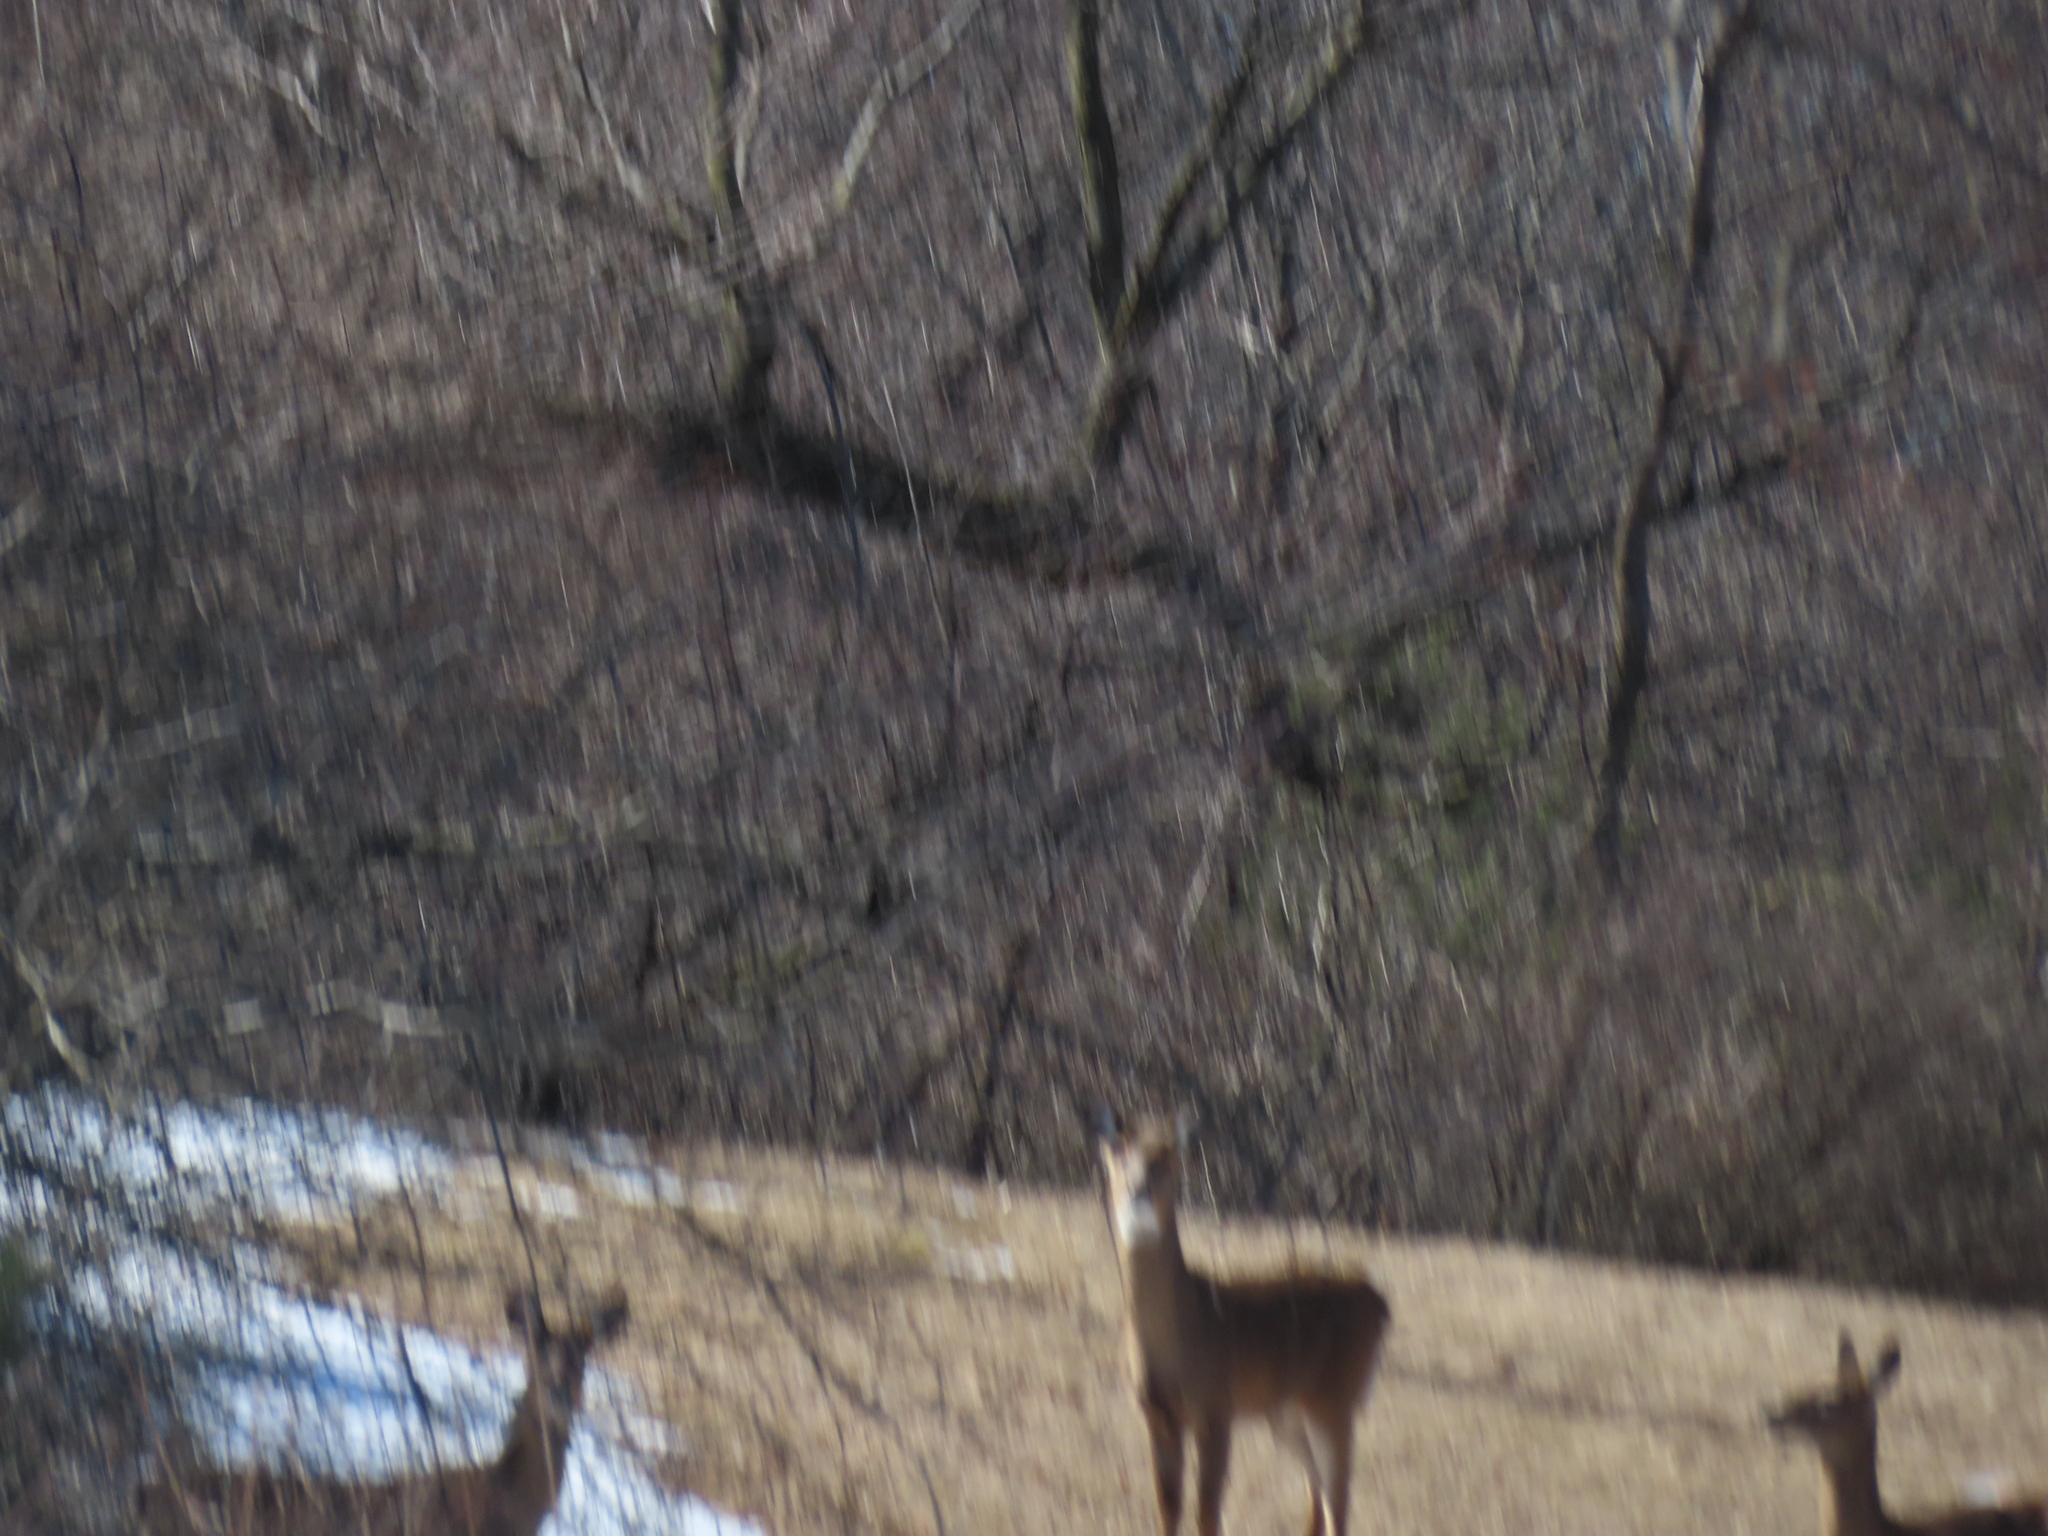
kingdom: Animalia
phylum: Chordata
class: Mammalia
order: Artiodactyla
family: Cervidae
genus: Odocoileus
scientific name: Odocoileus virginianus
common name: White-tailed deer
